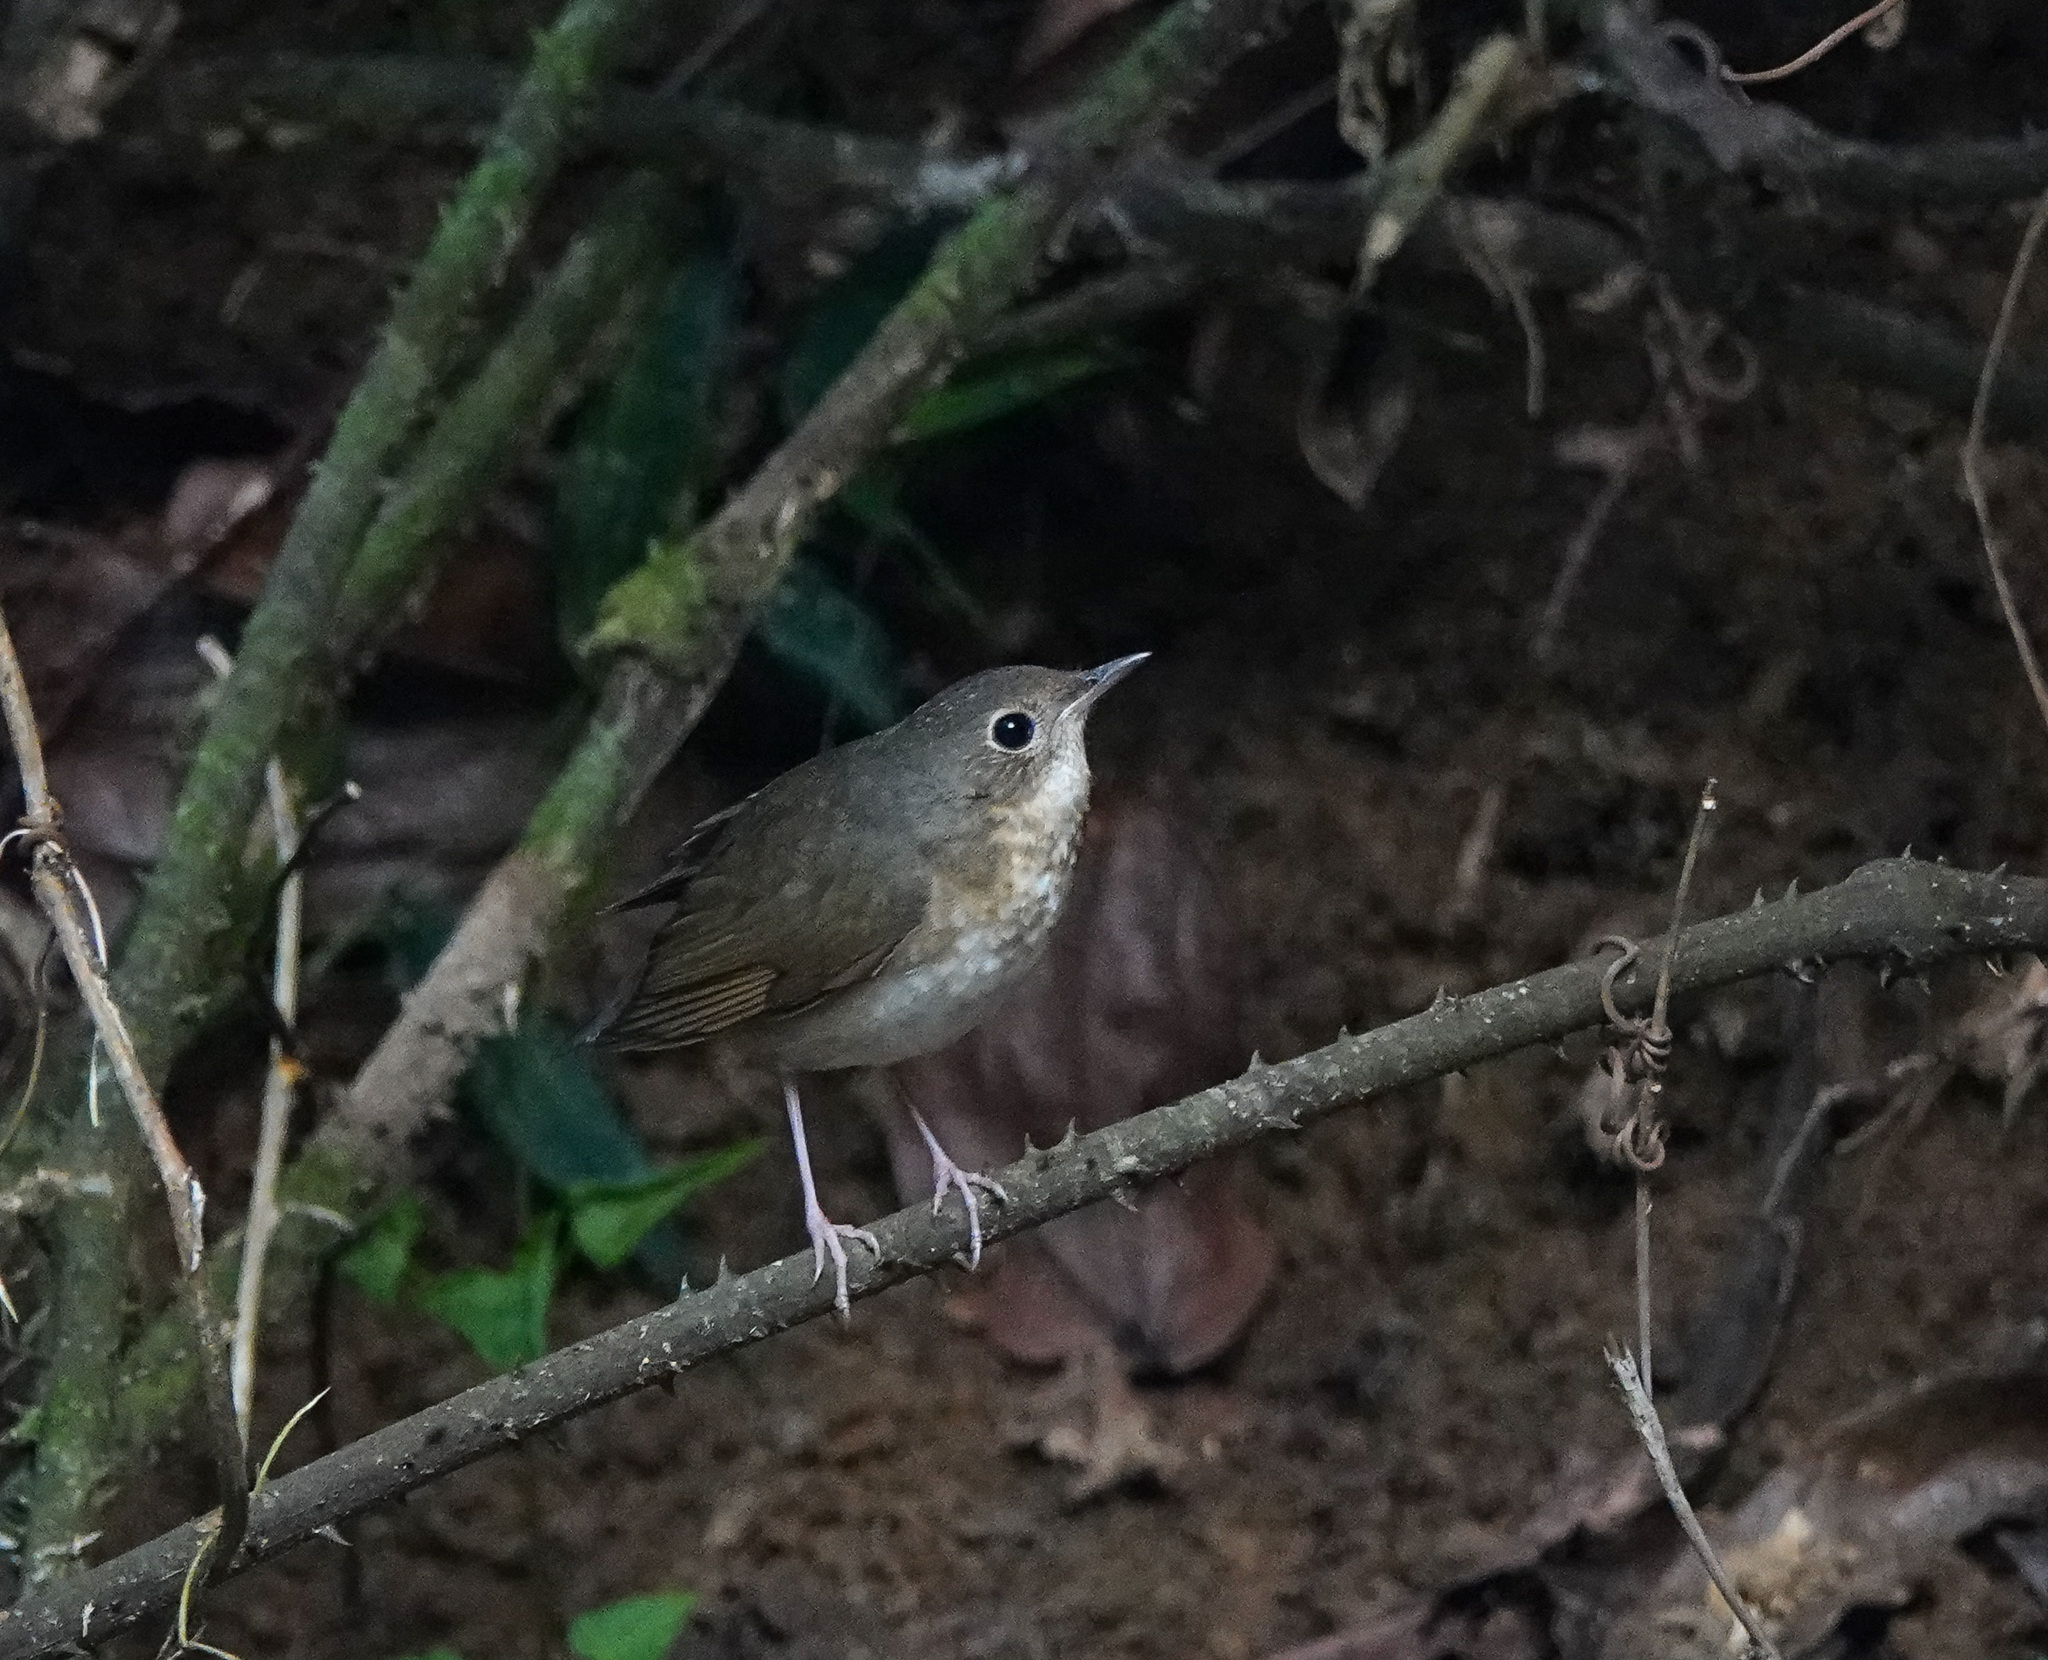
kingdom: Animalia
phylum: Chordata
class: Aves
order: Passeriformes
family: Muscicapidae
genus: Luscinia
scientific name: Luscinia cyane
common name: Siberian blue robin
